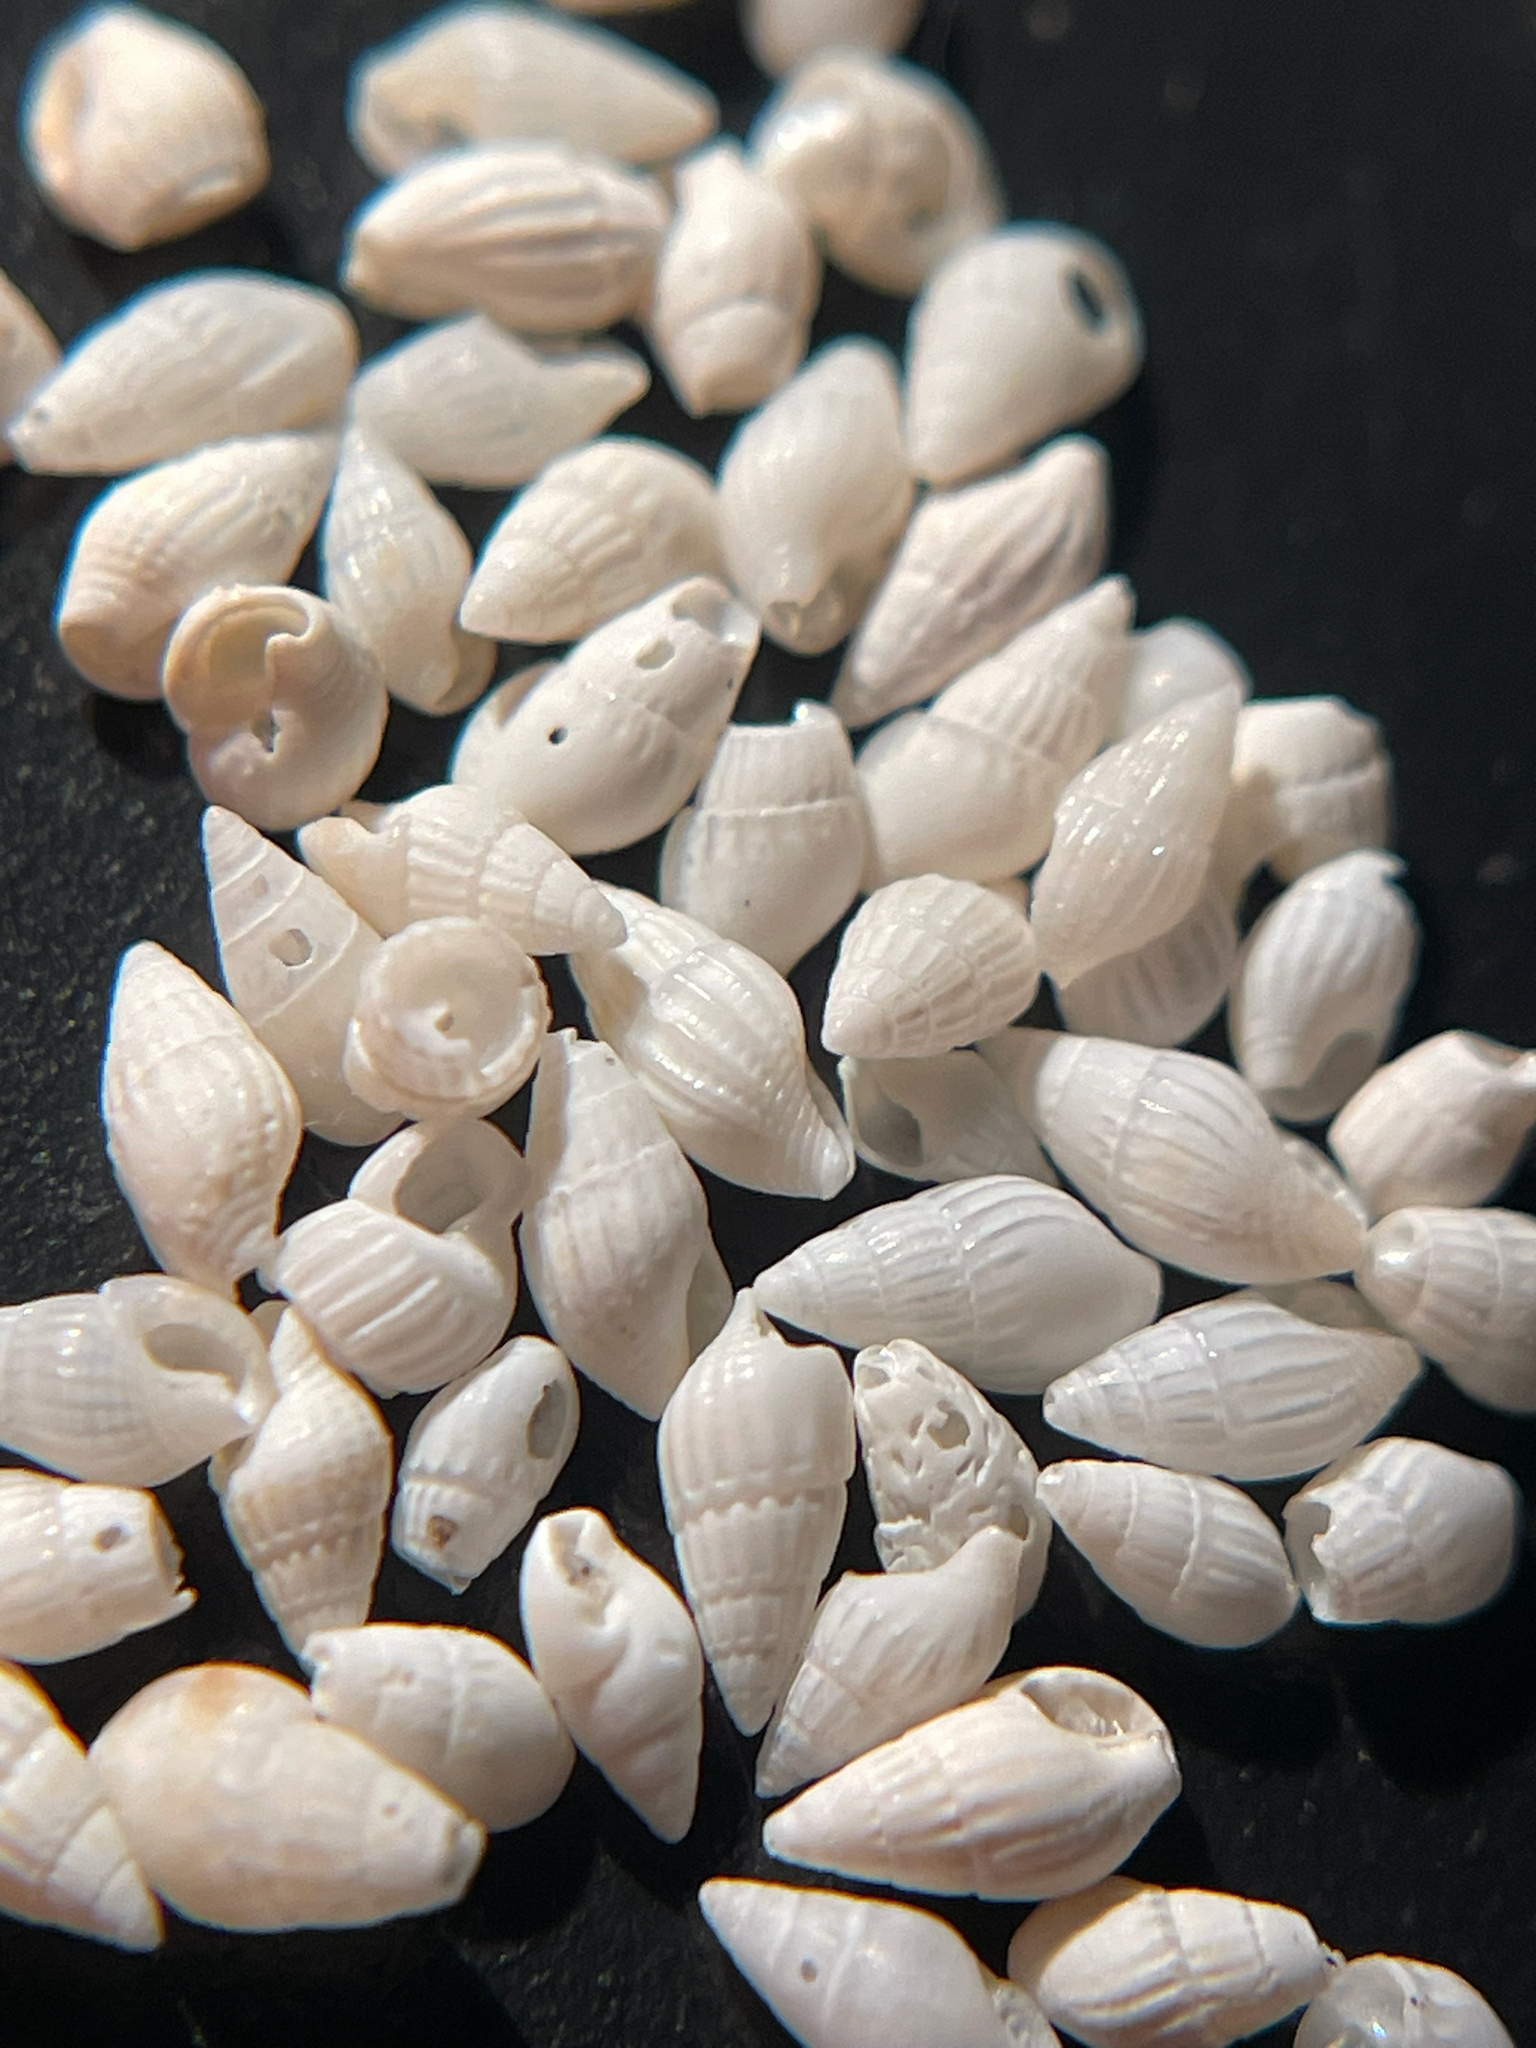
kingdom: Animalia
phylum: Mollusca
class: Gastropoda
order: Neogastropoda
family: Columbellidae
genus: Parvanachis
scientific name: Parvanachis obesa
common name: Fat dovesnail
